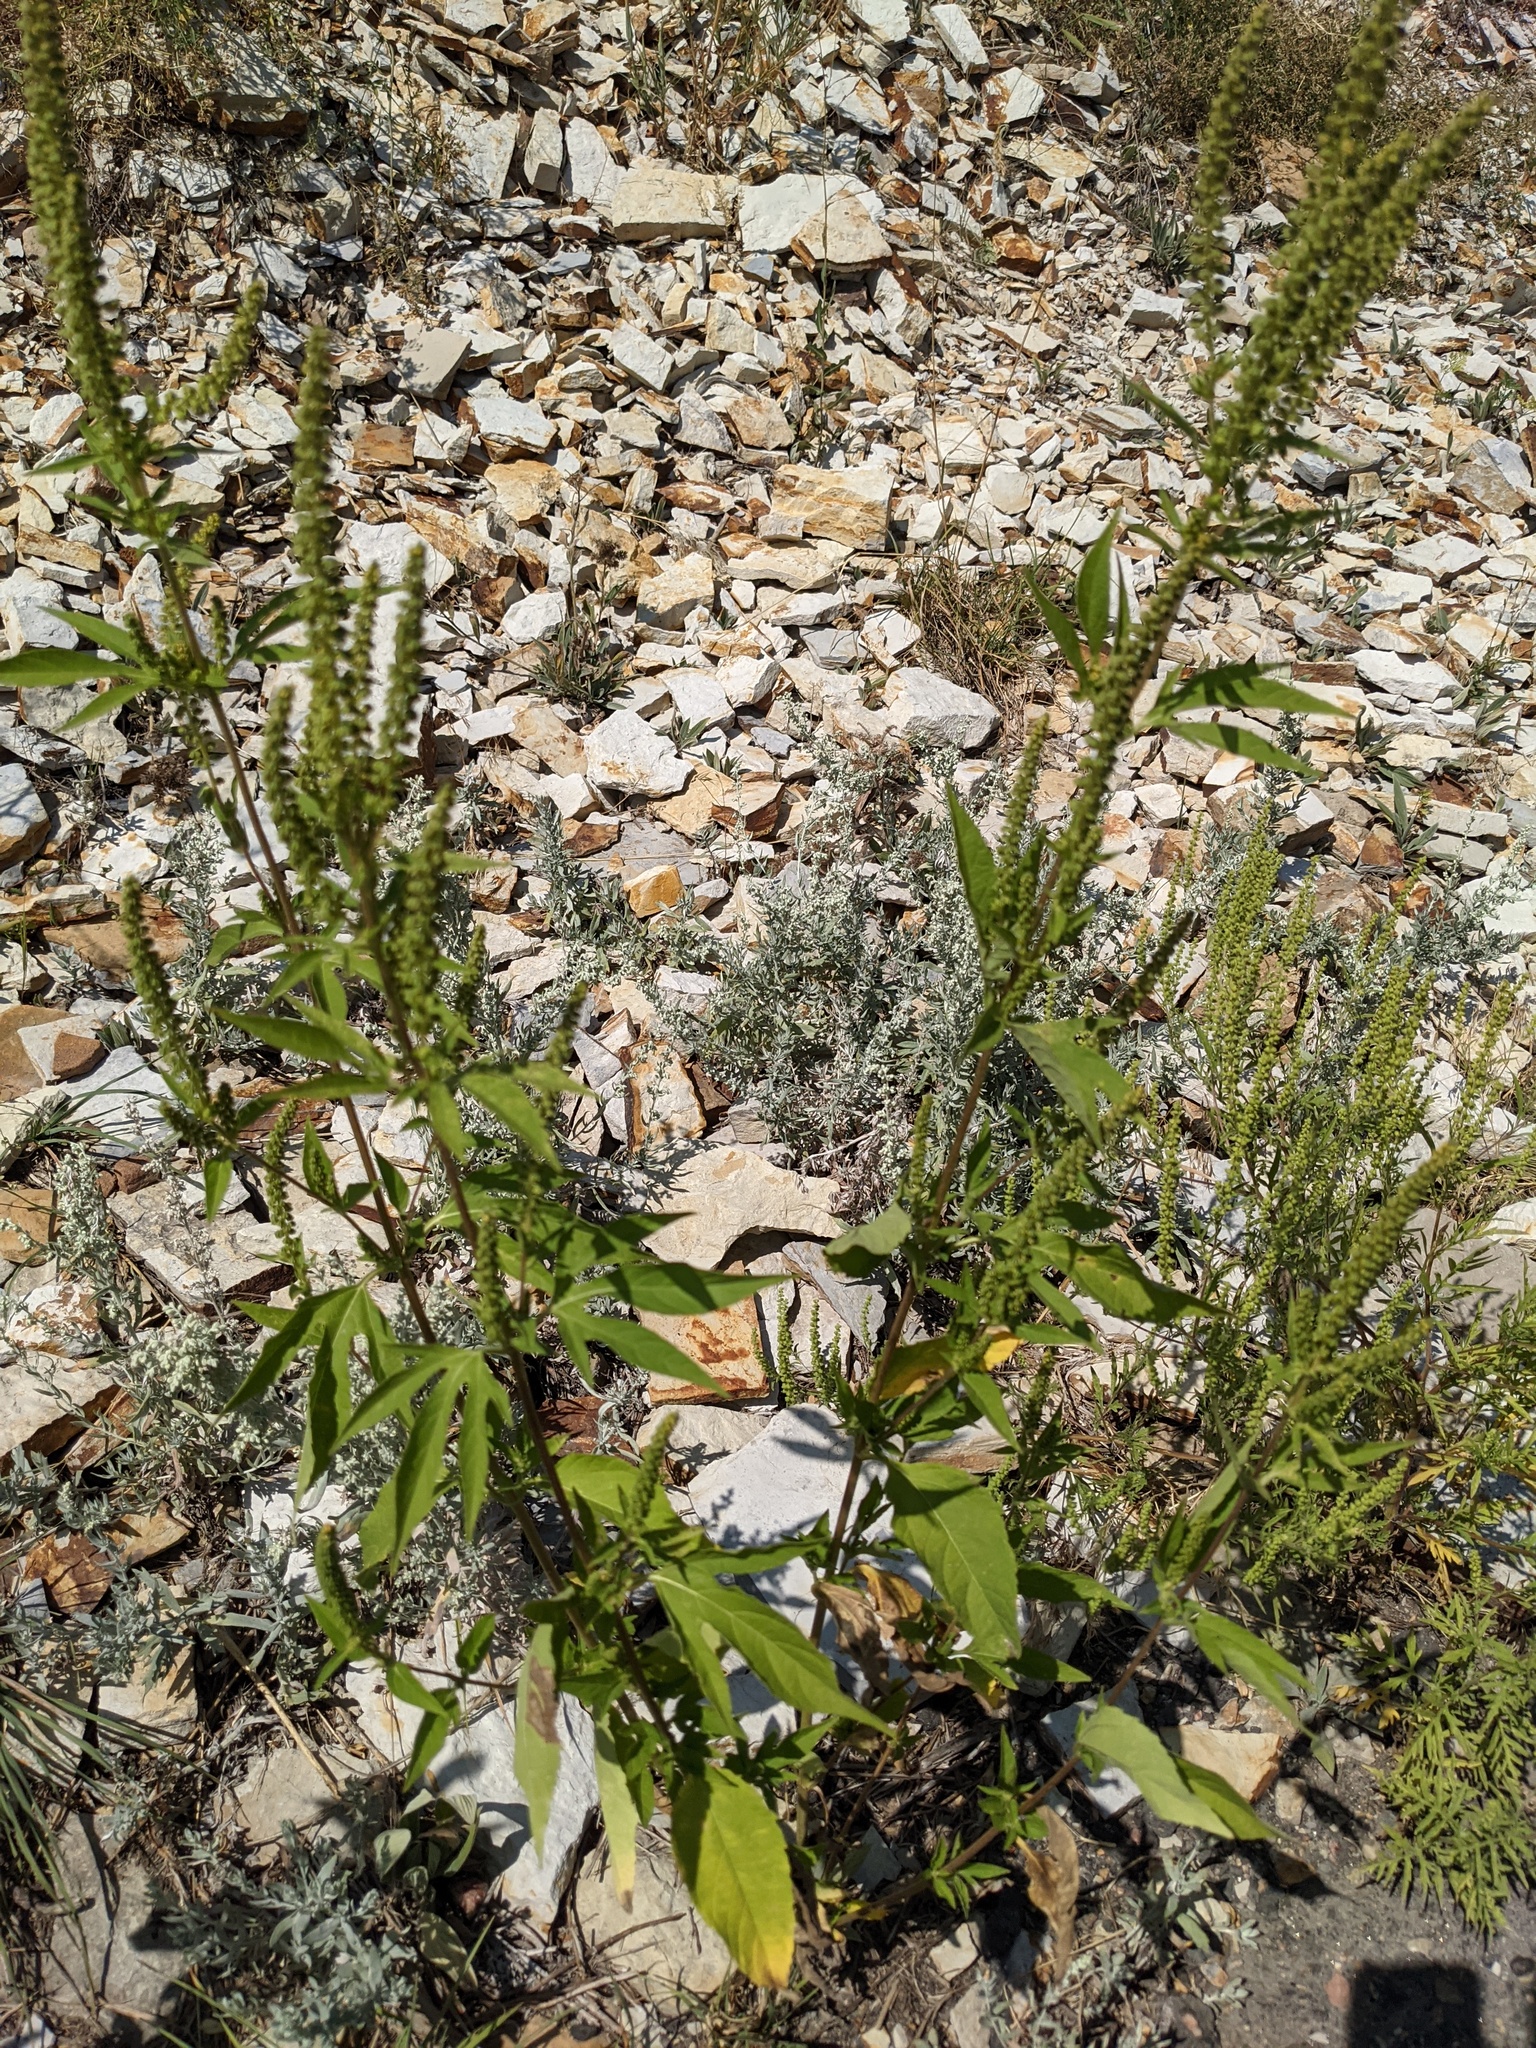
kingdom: Plantae
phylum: Tracheophyta
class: Magnoliopsida
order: Asterales
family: Asteraceae
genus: Ambrosia
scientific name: Ambrosia trifida
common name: Giant ragweed
